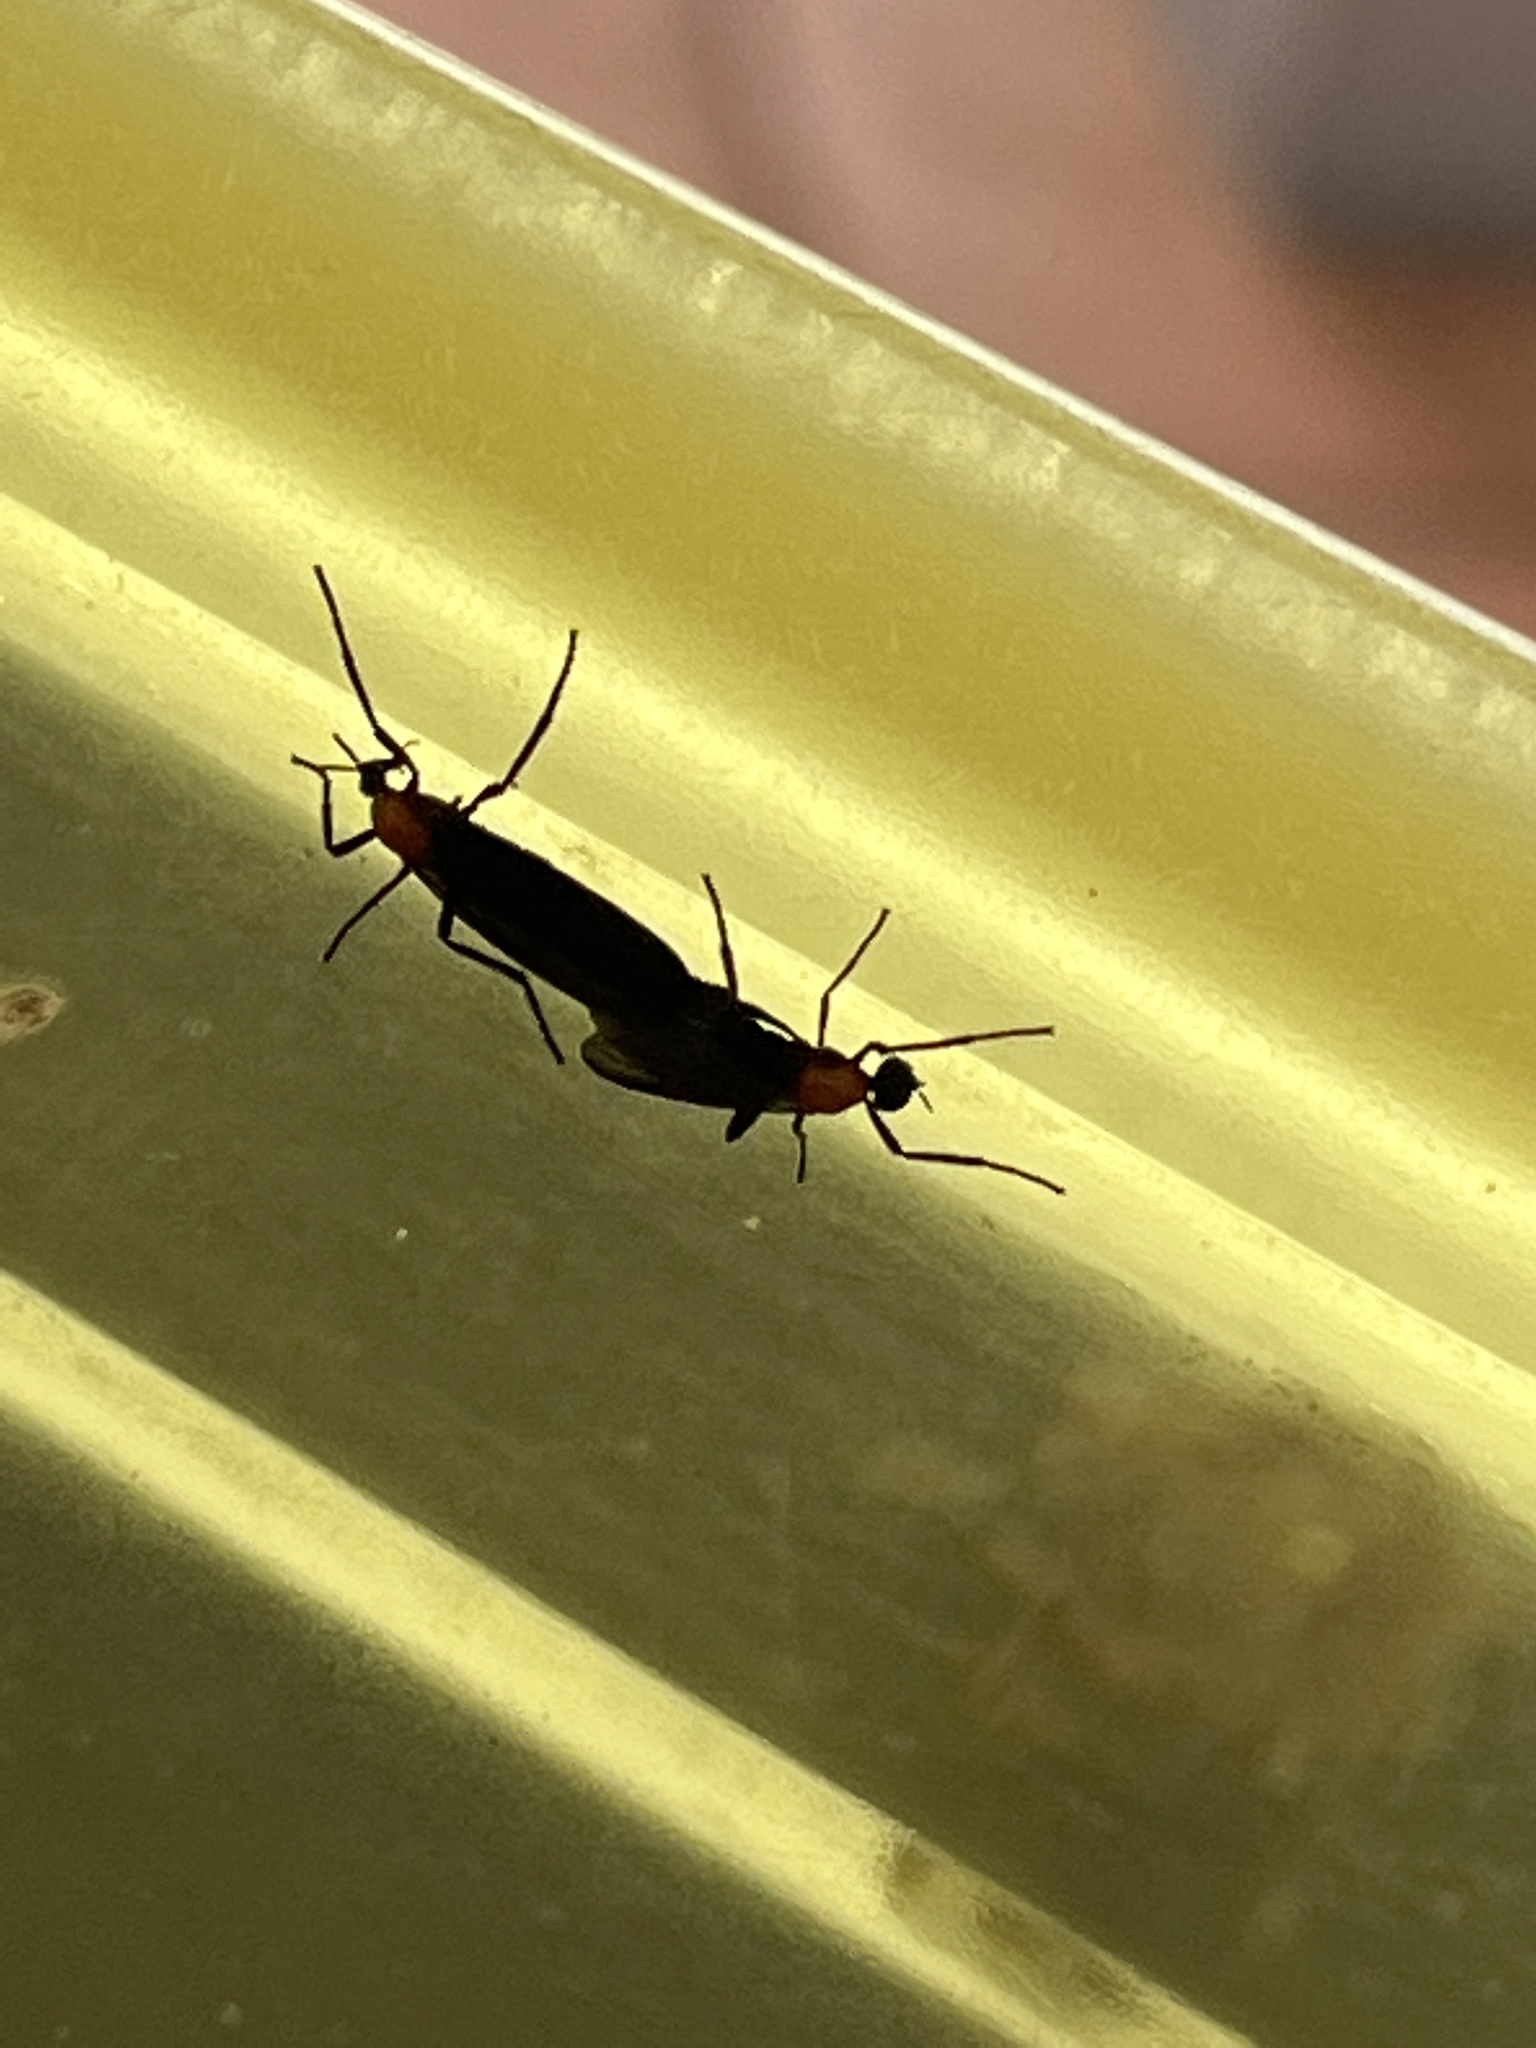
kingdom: Animalia
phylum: Arthropoda
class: Insecta
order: Diptera
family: Bibionidae
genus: Plecia
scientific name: Plecia nearctica
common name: March fly
